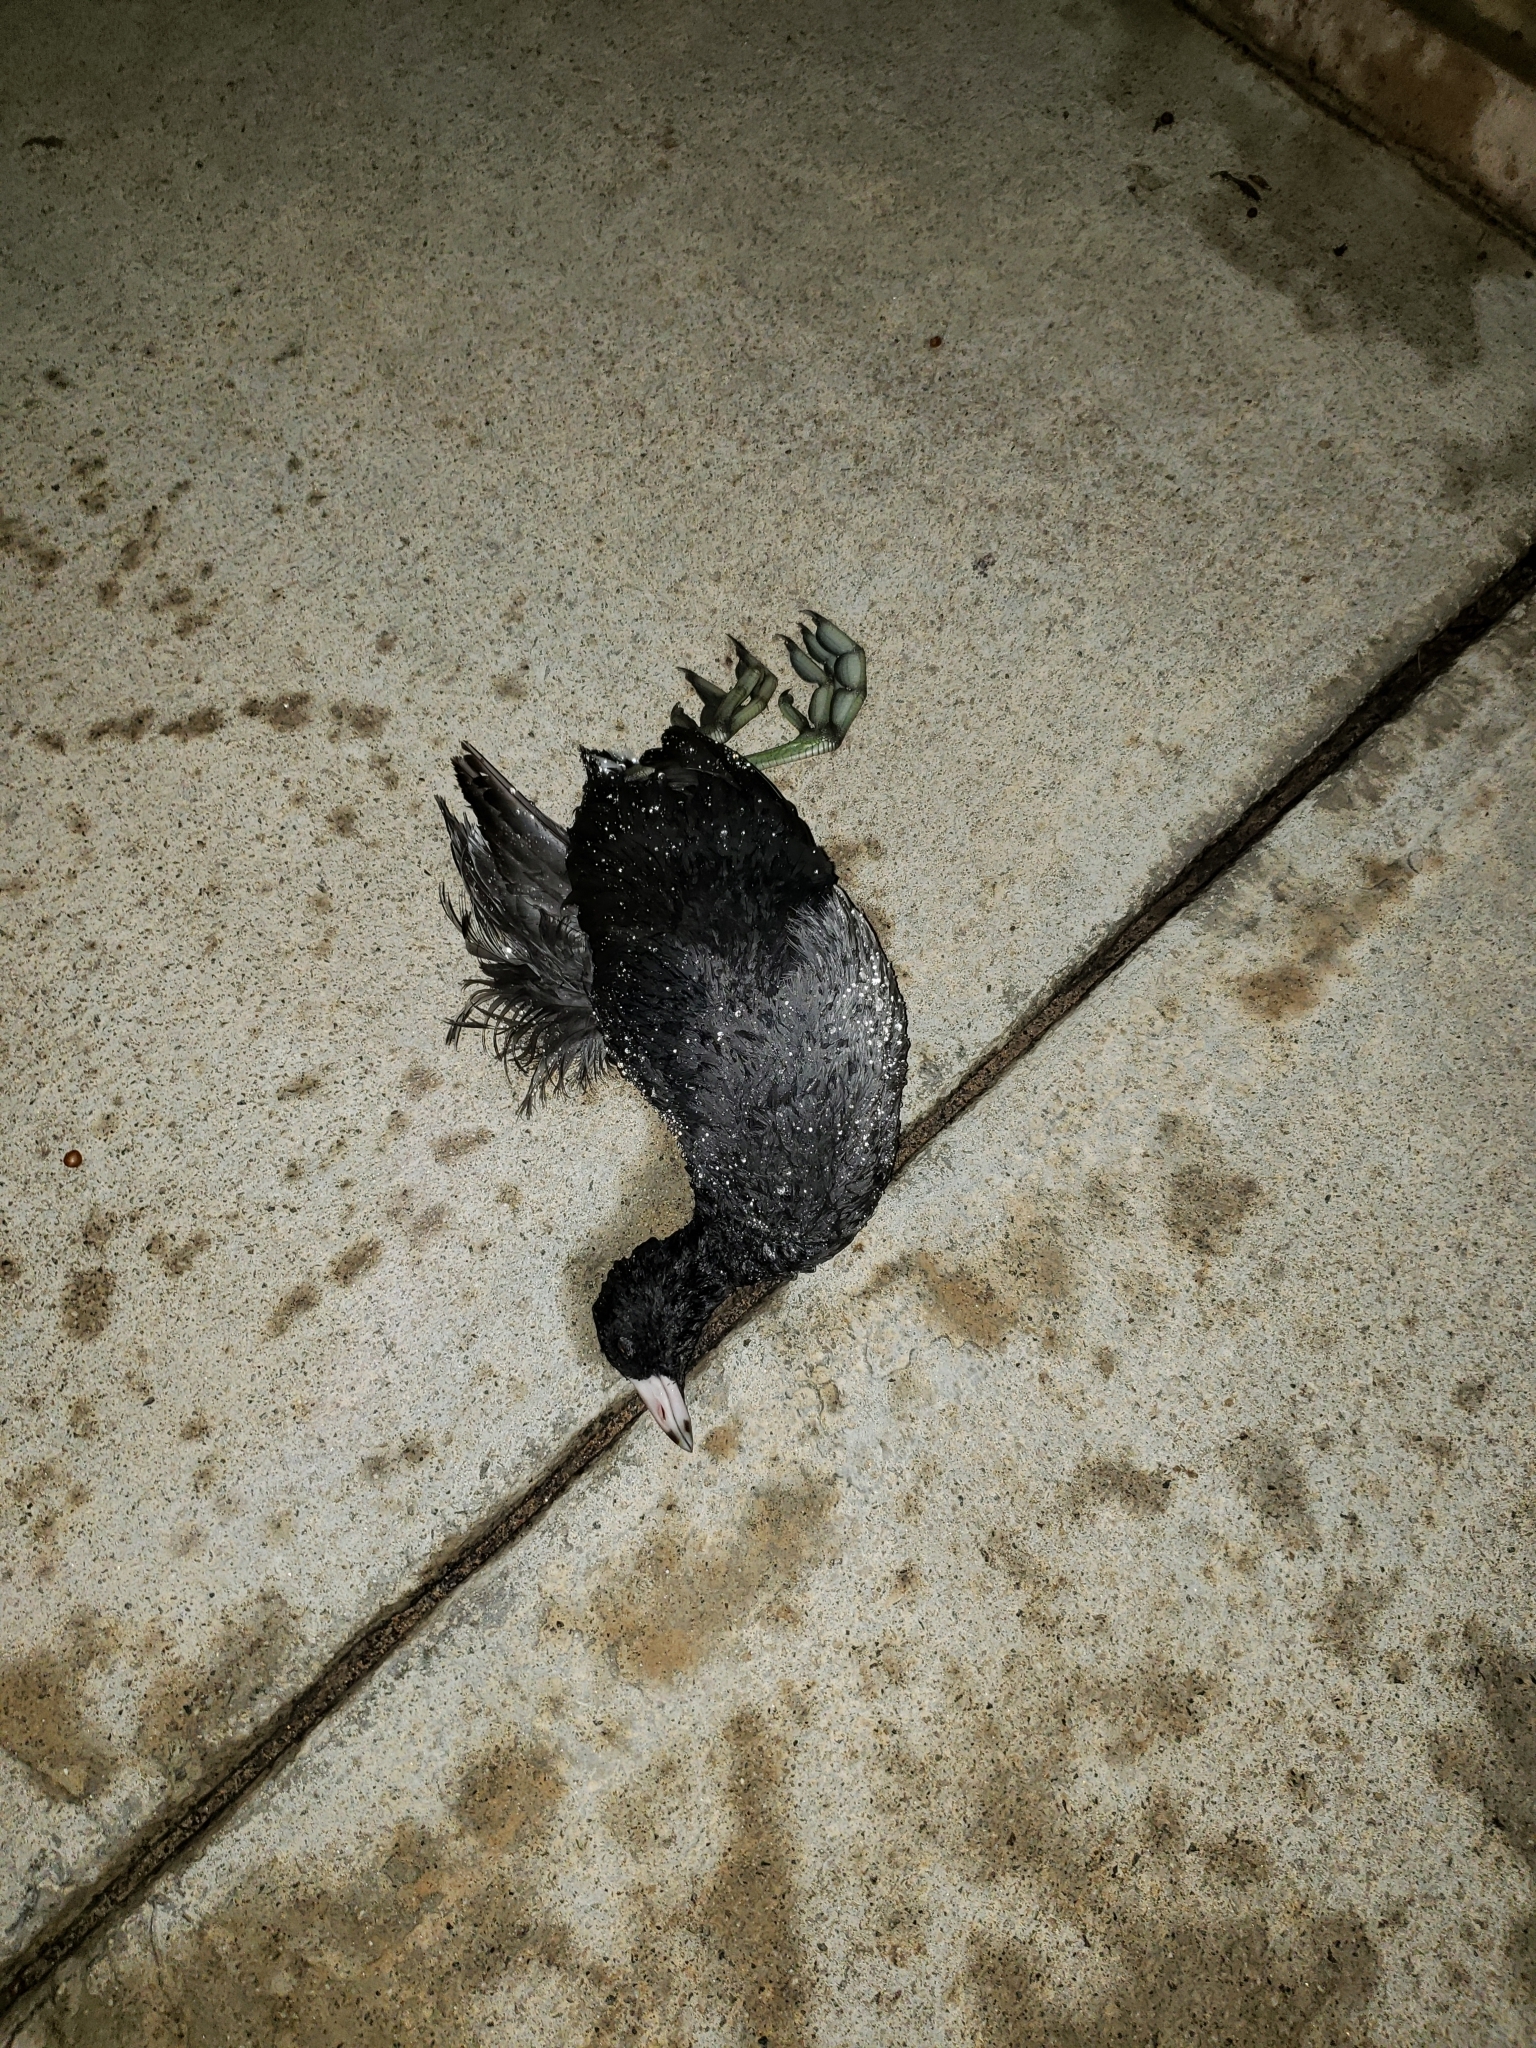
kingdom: Animalia
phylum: Chordata
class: Aves
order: Gruiformes
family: Rallidae
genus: Fulica
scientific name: Fulica americana
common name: American coot
